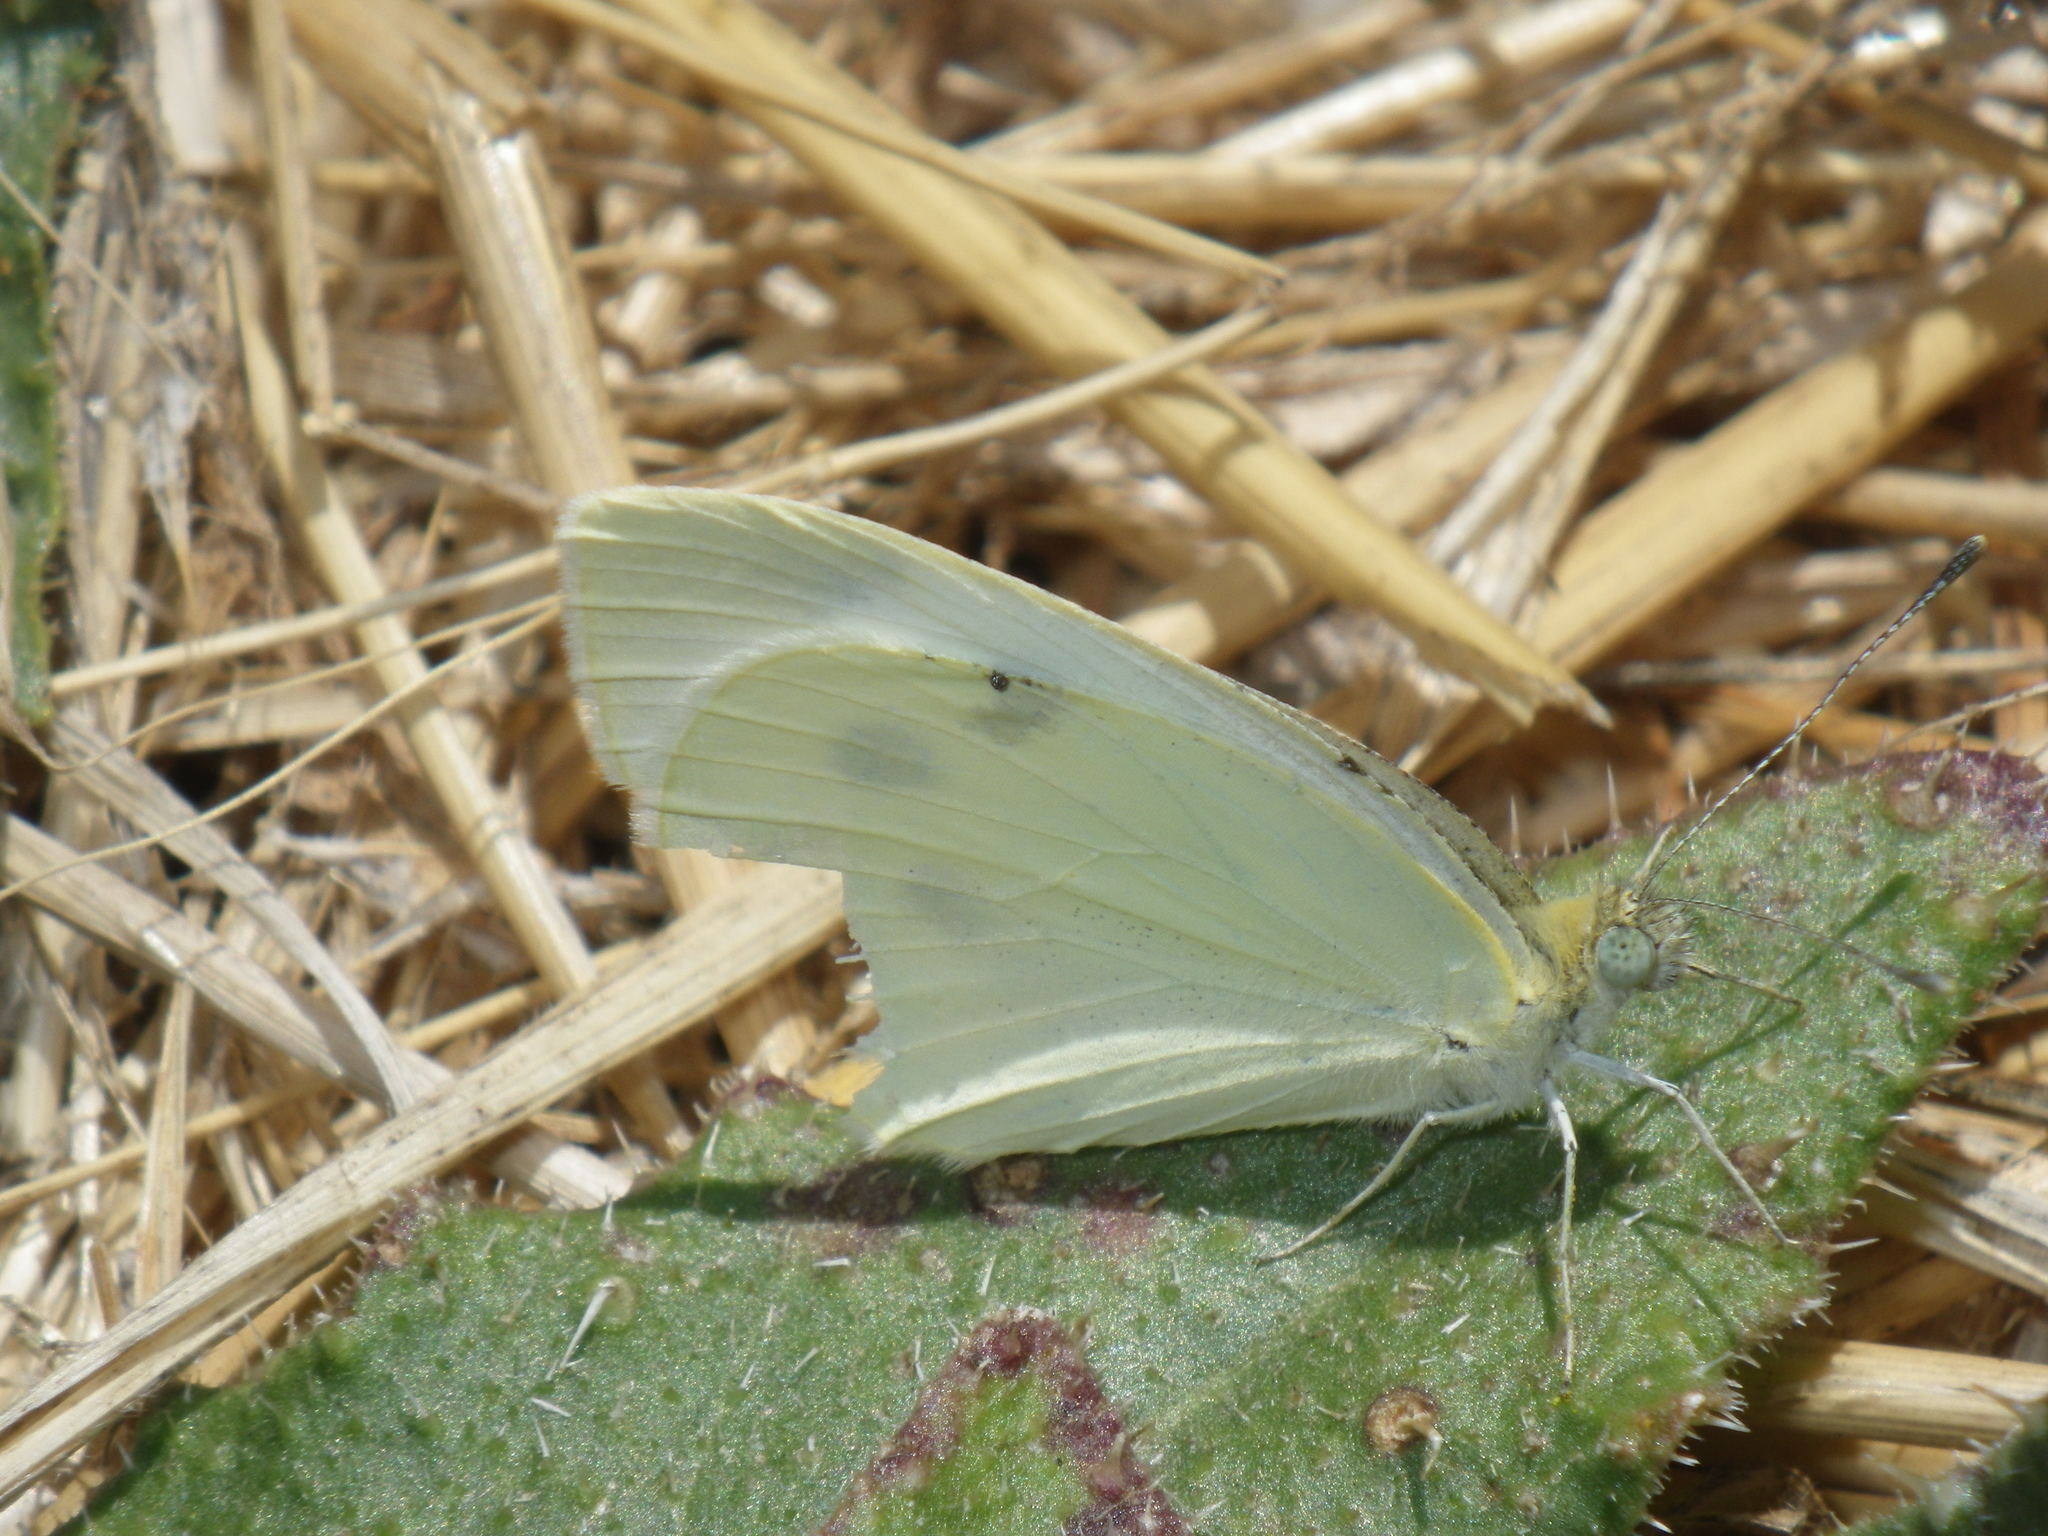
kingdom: Animalia
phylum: Arthropoda
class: Insecta
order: Lepidoptera
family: Pieridae
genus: Pieris
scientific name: Pieris rapae
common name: Small white
